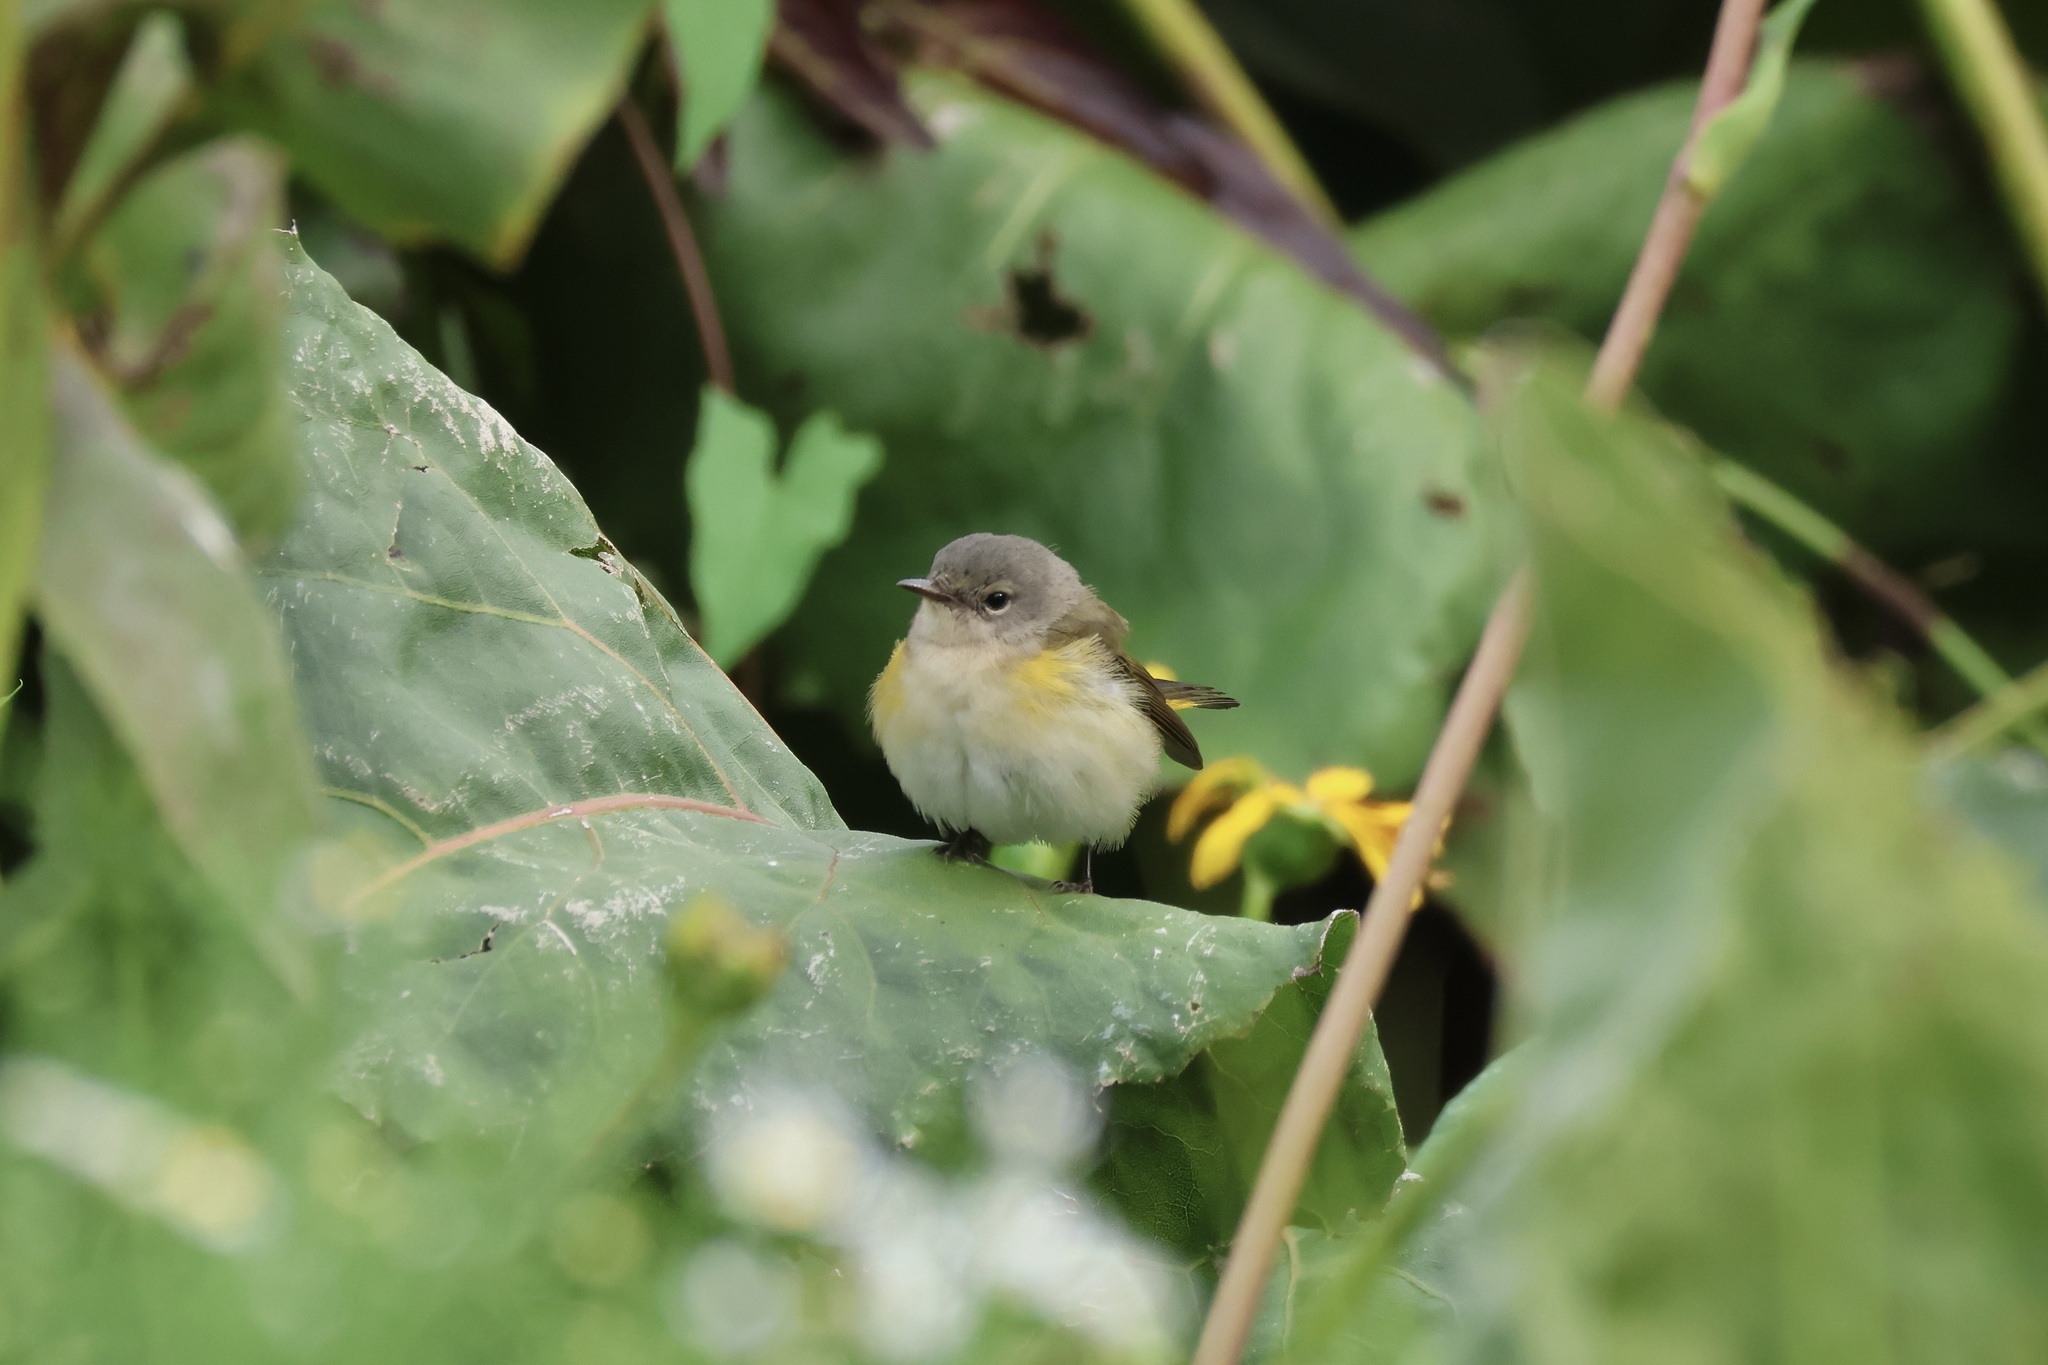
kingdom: Animalia
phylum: Chordata
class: Aves
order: Passeriformes
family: Parulidae
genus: Setophaga
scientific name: Setophaga ruticilla
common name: American redstart
